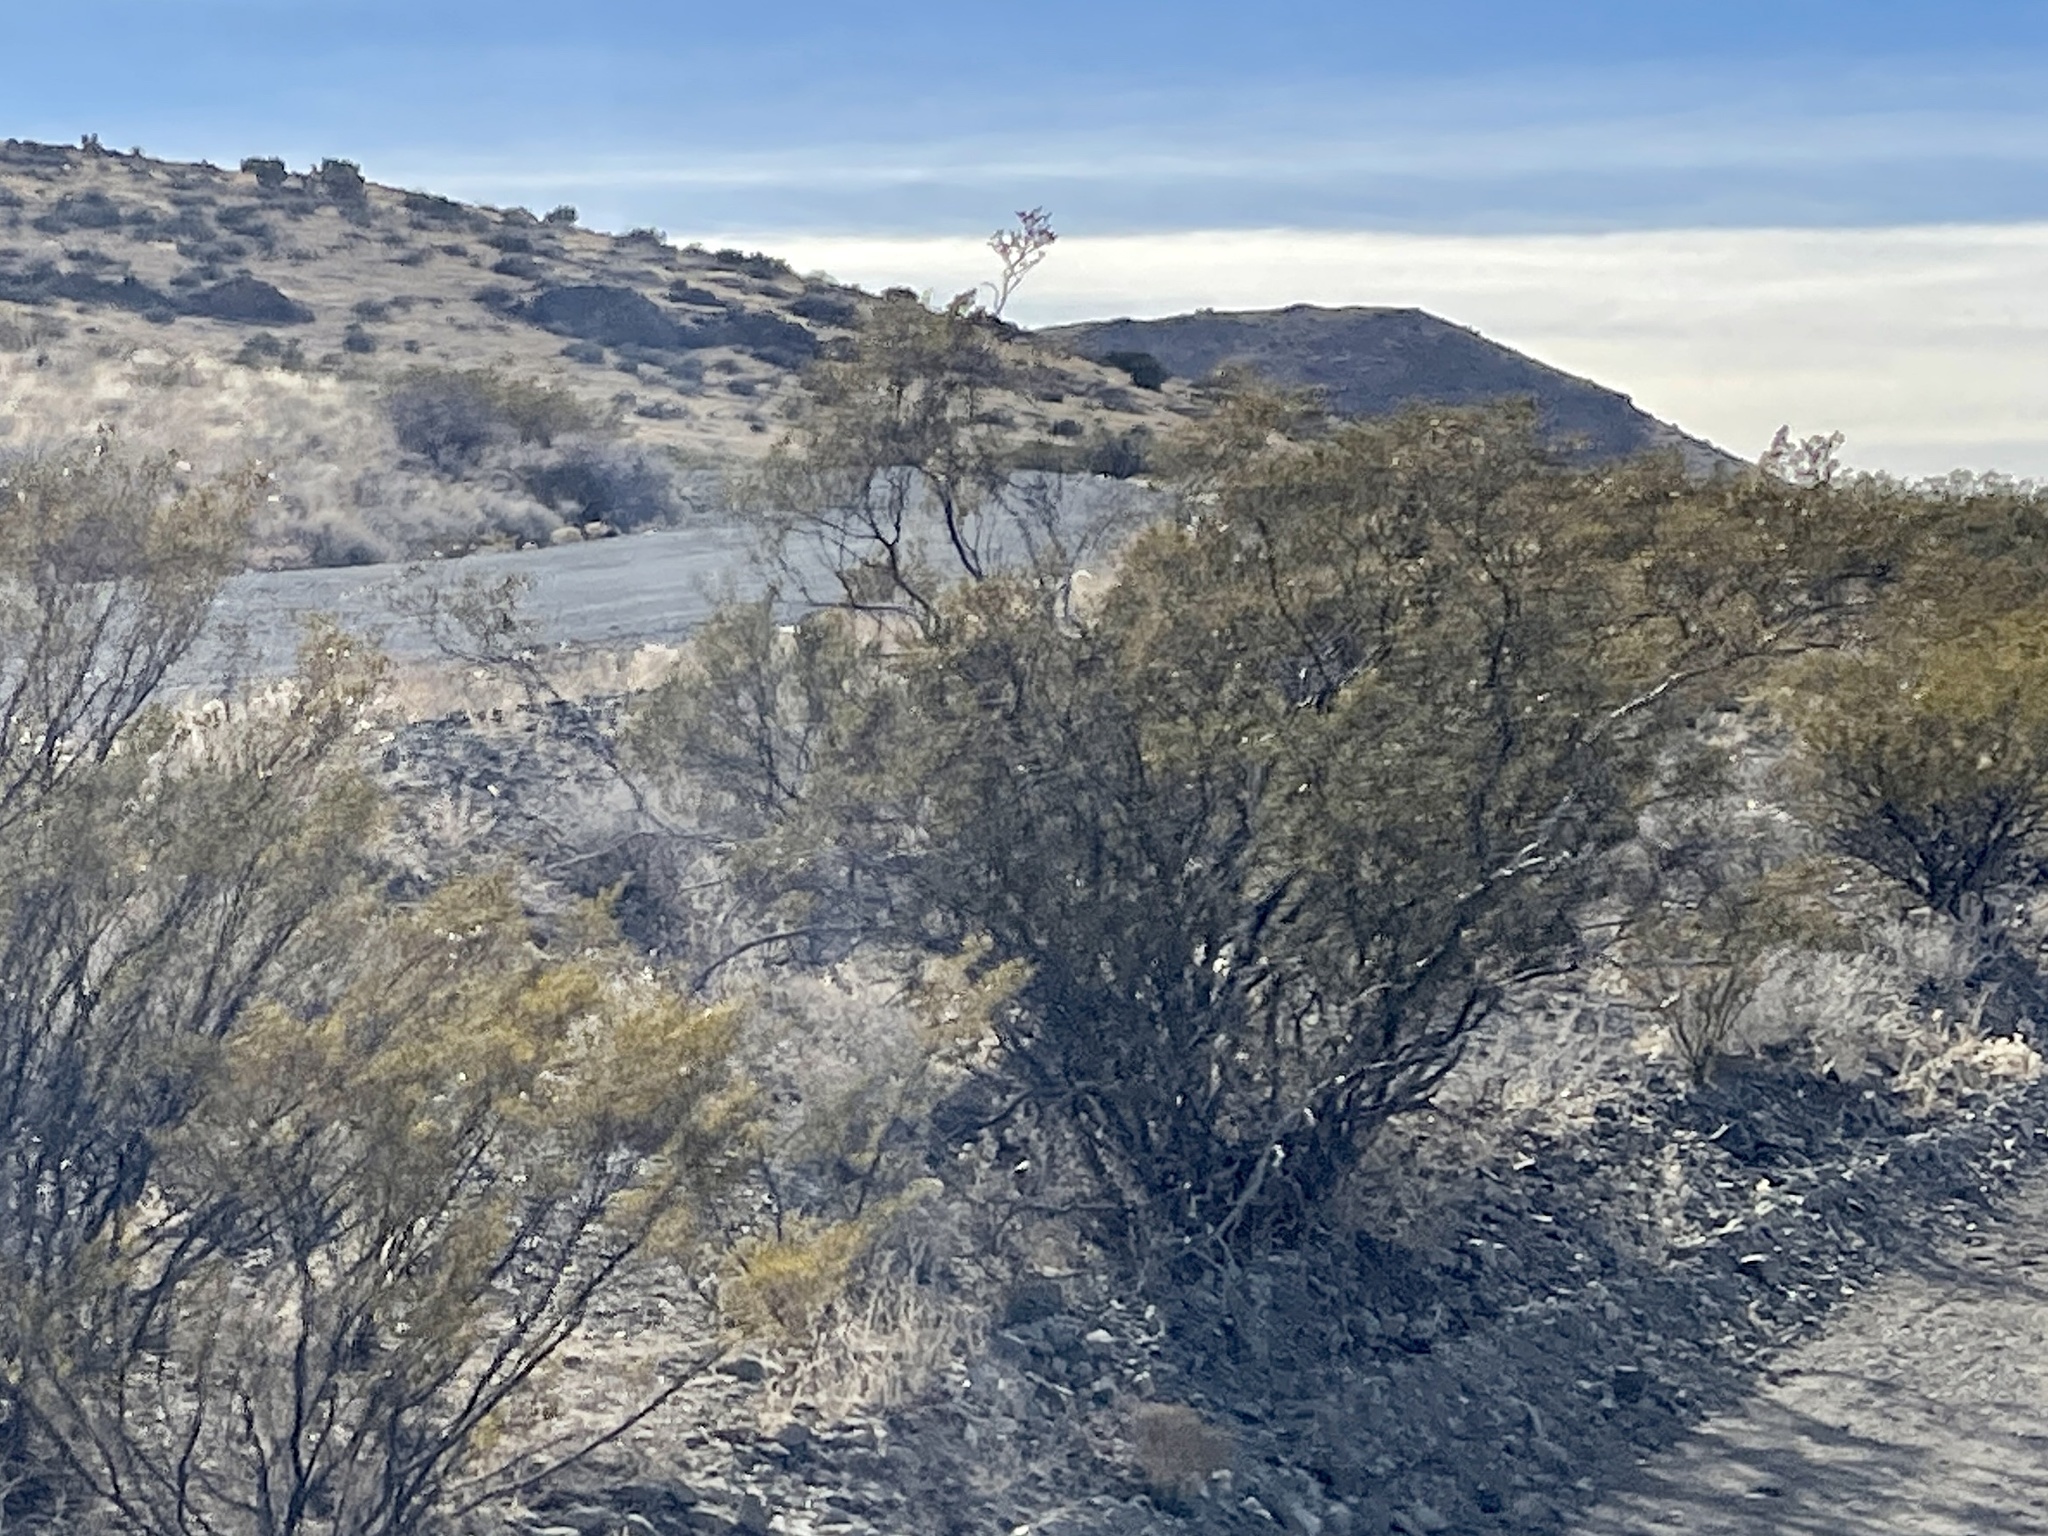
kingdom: Plantae
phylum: Tracheophyta
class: Magnoliopsida
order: Zygophyllales
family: Zygophyllaceae
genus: Larrea
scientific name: Larrea tridentata
